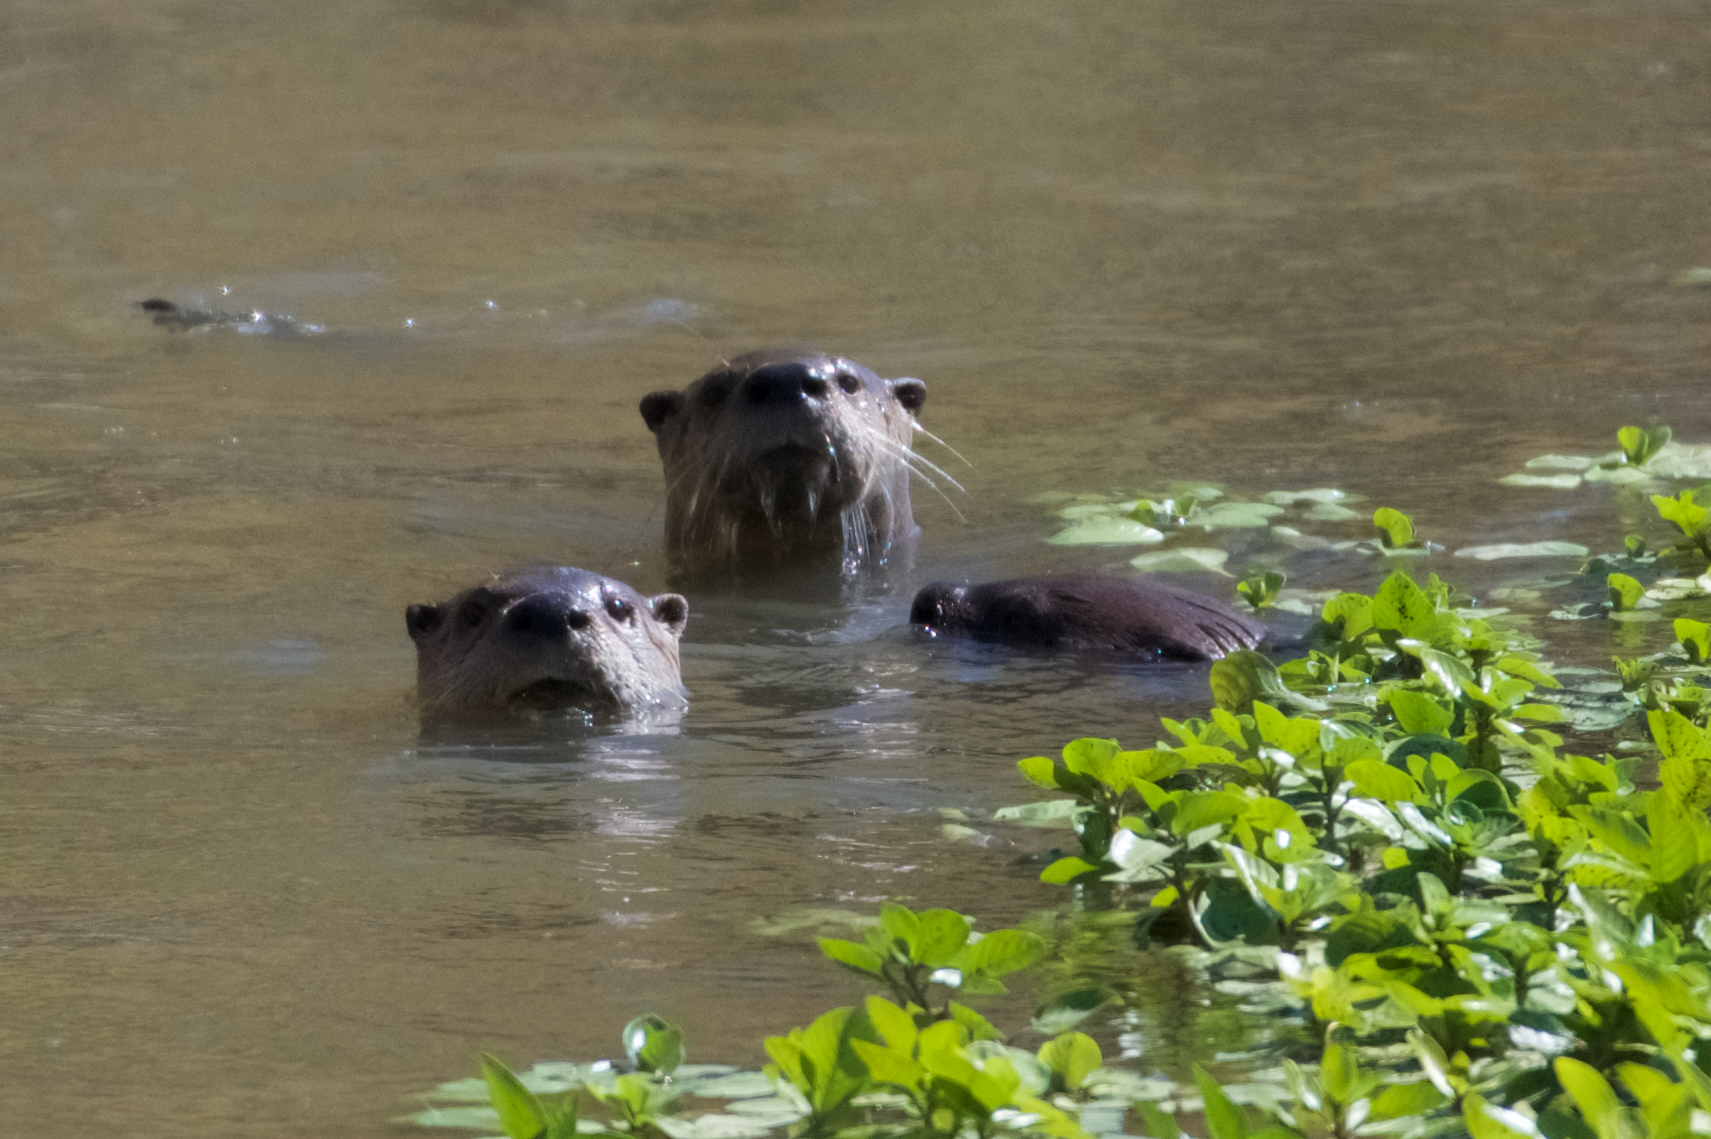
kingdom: Animalia
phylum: Chordata
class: Mammalia
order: Carnivora
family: Mustelidae
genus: Lontra
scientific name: Lontra canadensis
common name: North american river otter
